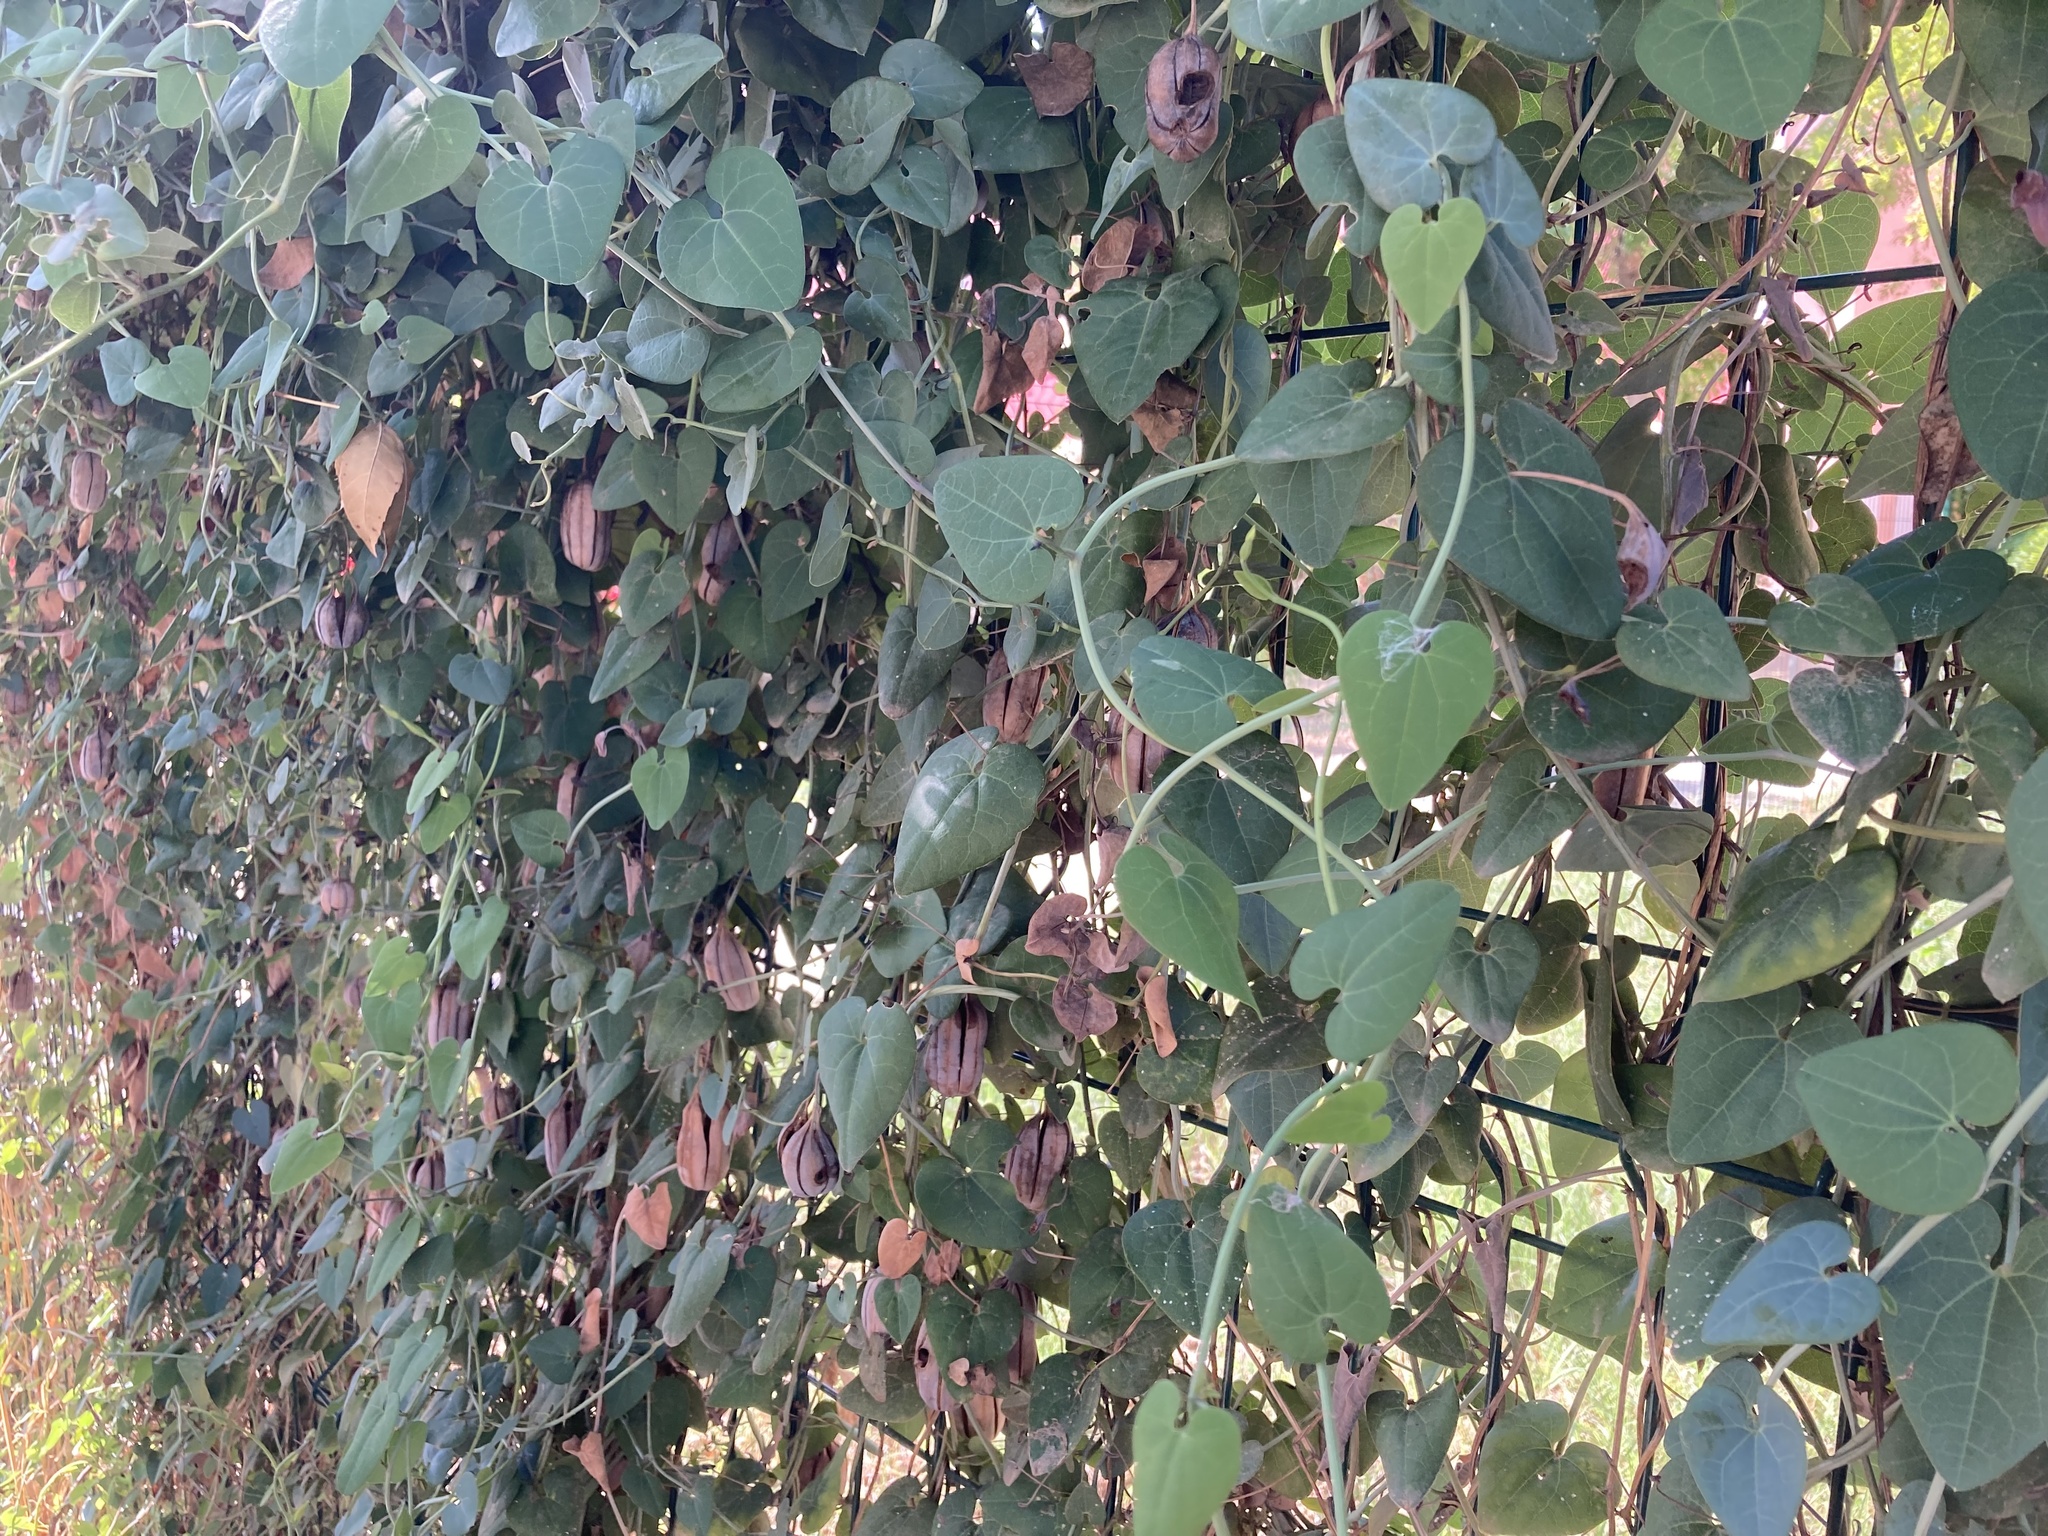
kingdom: Plantae
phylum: Tracheophyta
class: Magnoliopsida
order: Piperales
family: Aristolochiaceae
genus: Aristolochia
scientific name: Aristolochia baetica
